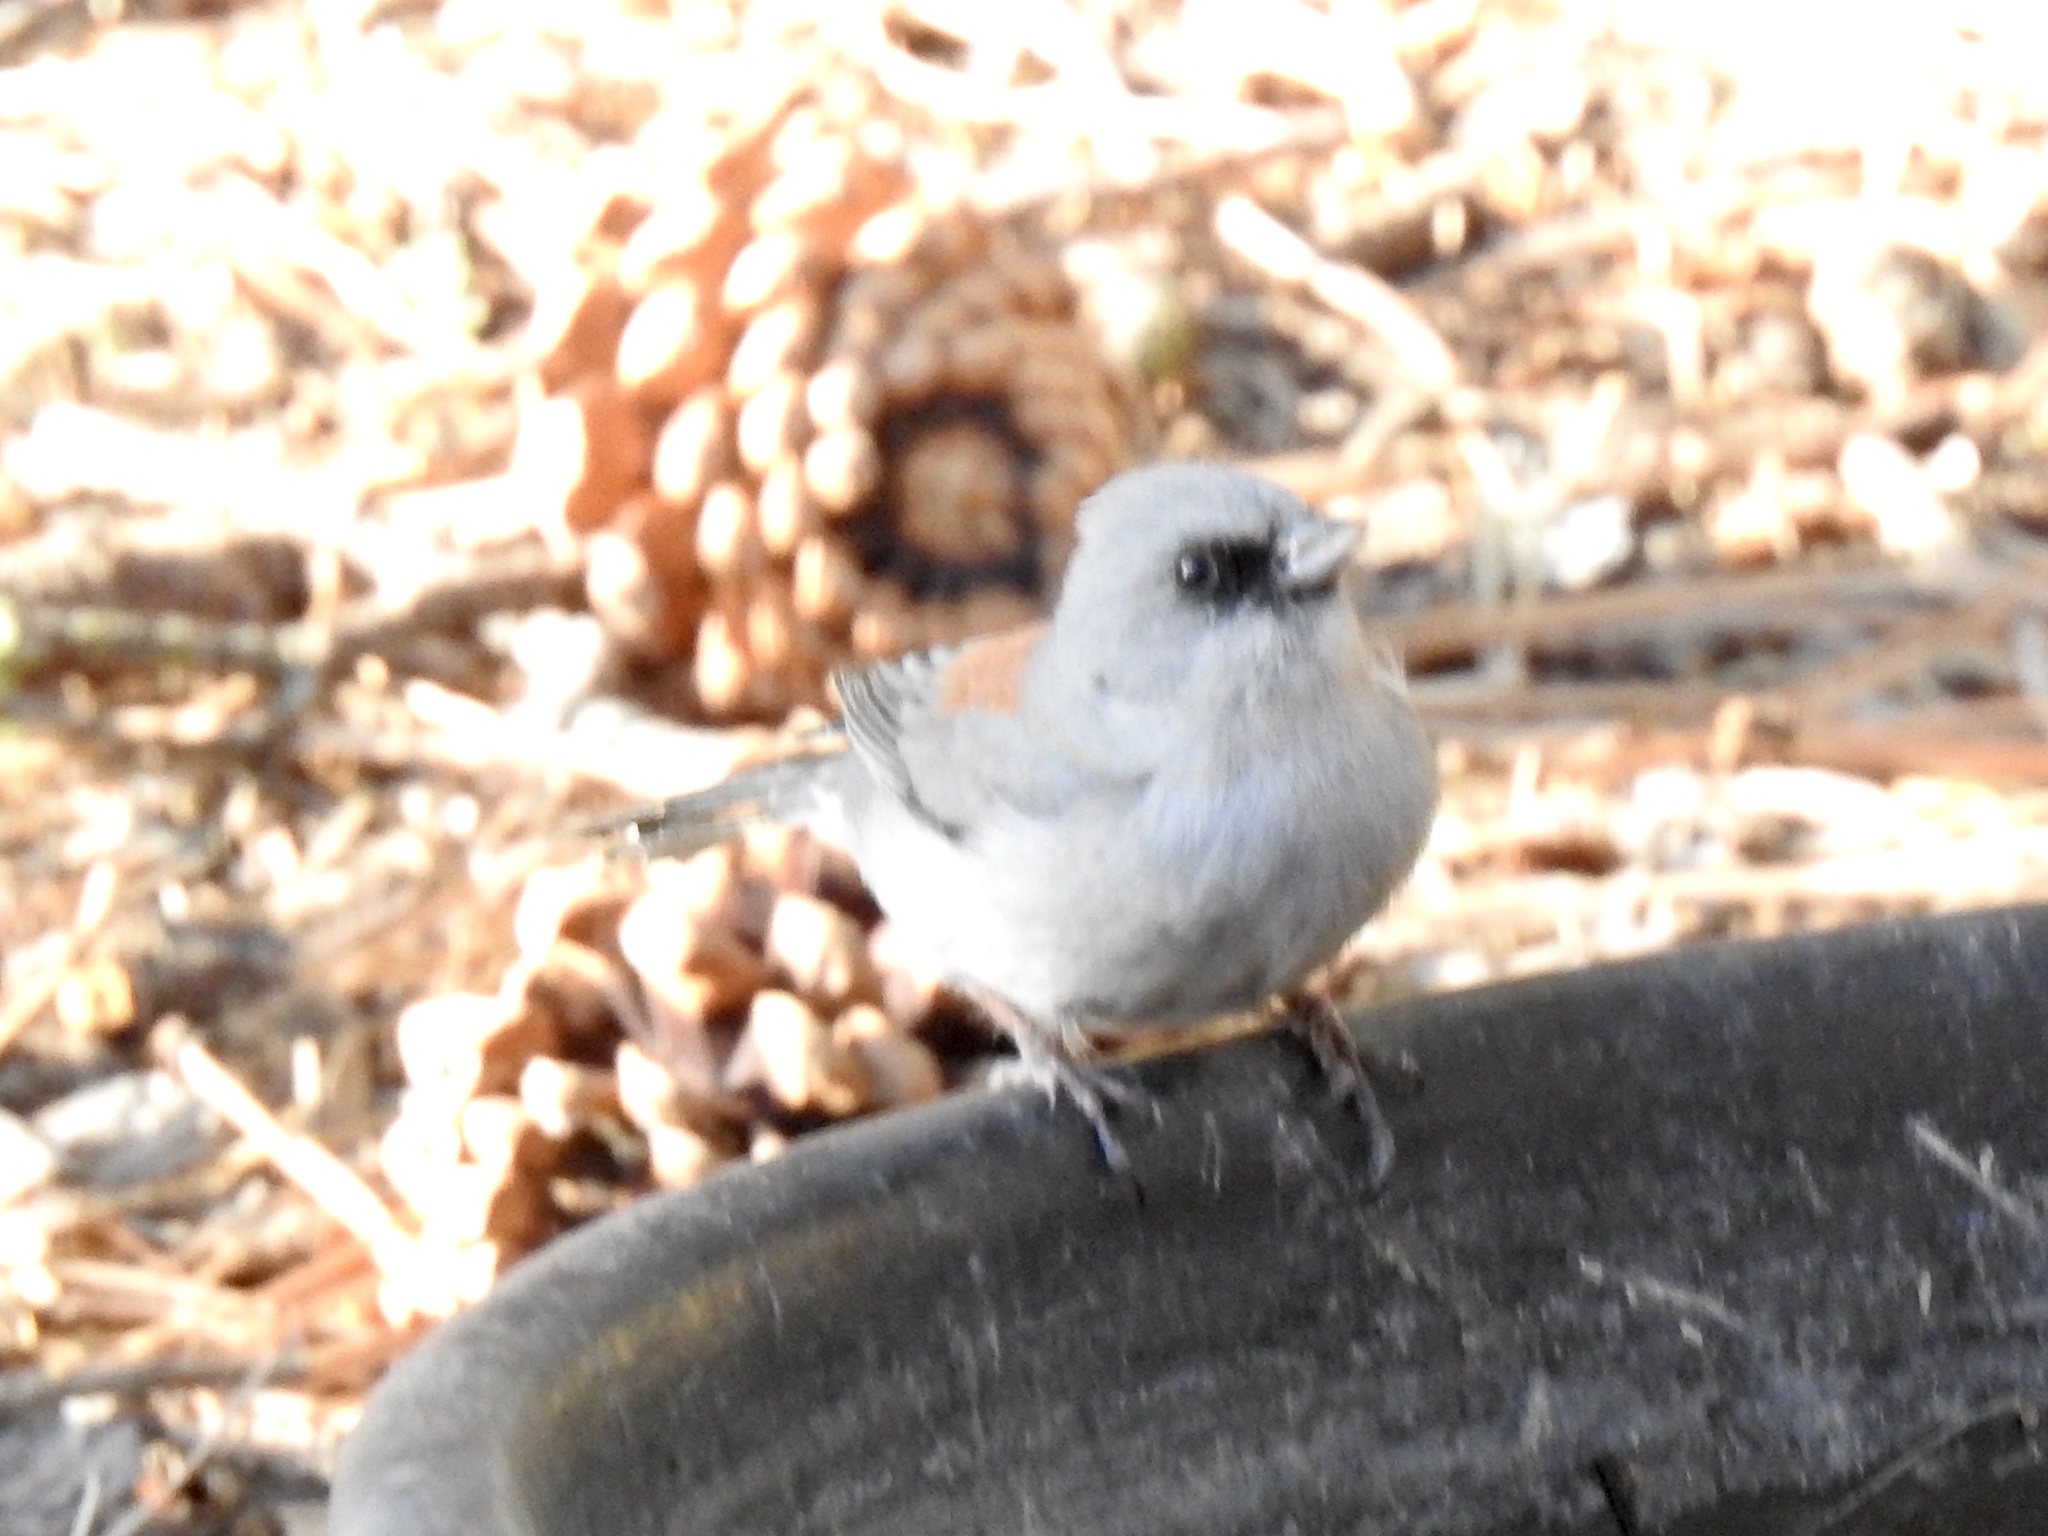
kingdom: Animalia
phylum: Chordata
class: Aves
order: Passeriformes
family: Passerellidae
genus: Junco
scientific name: Junco hyemalis
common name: Dark-eyed junco
